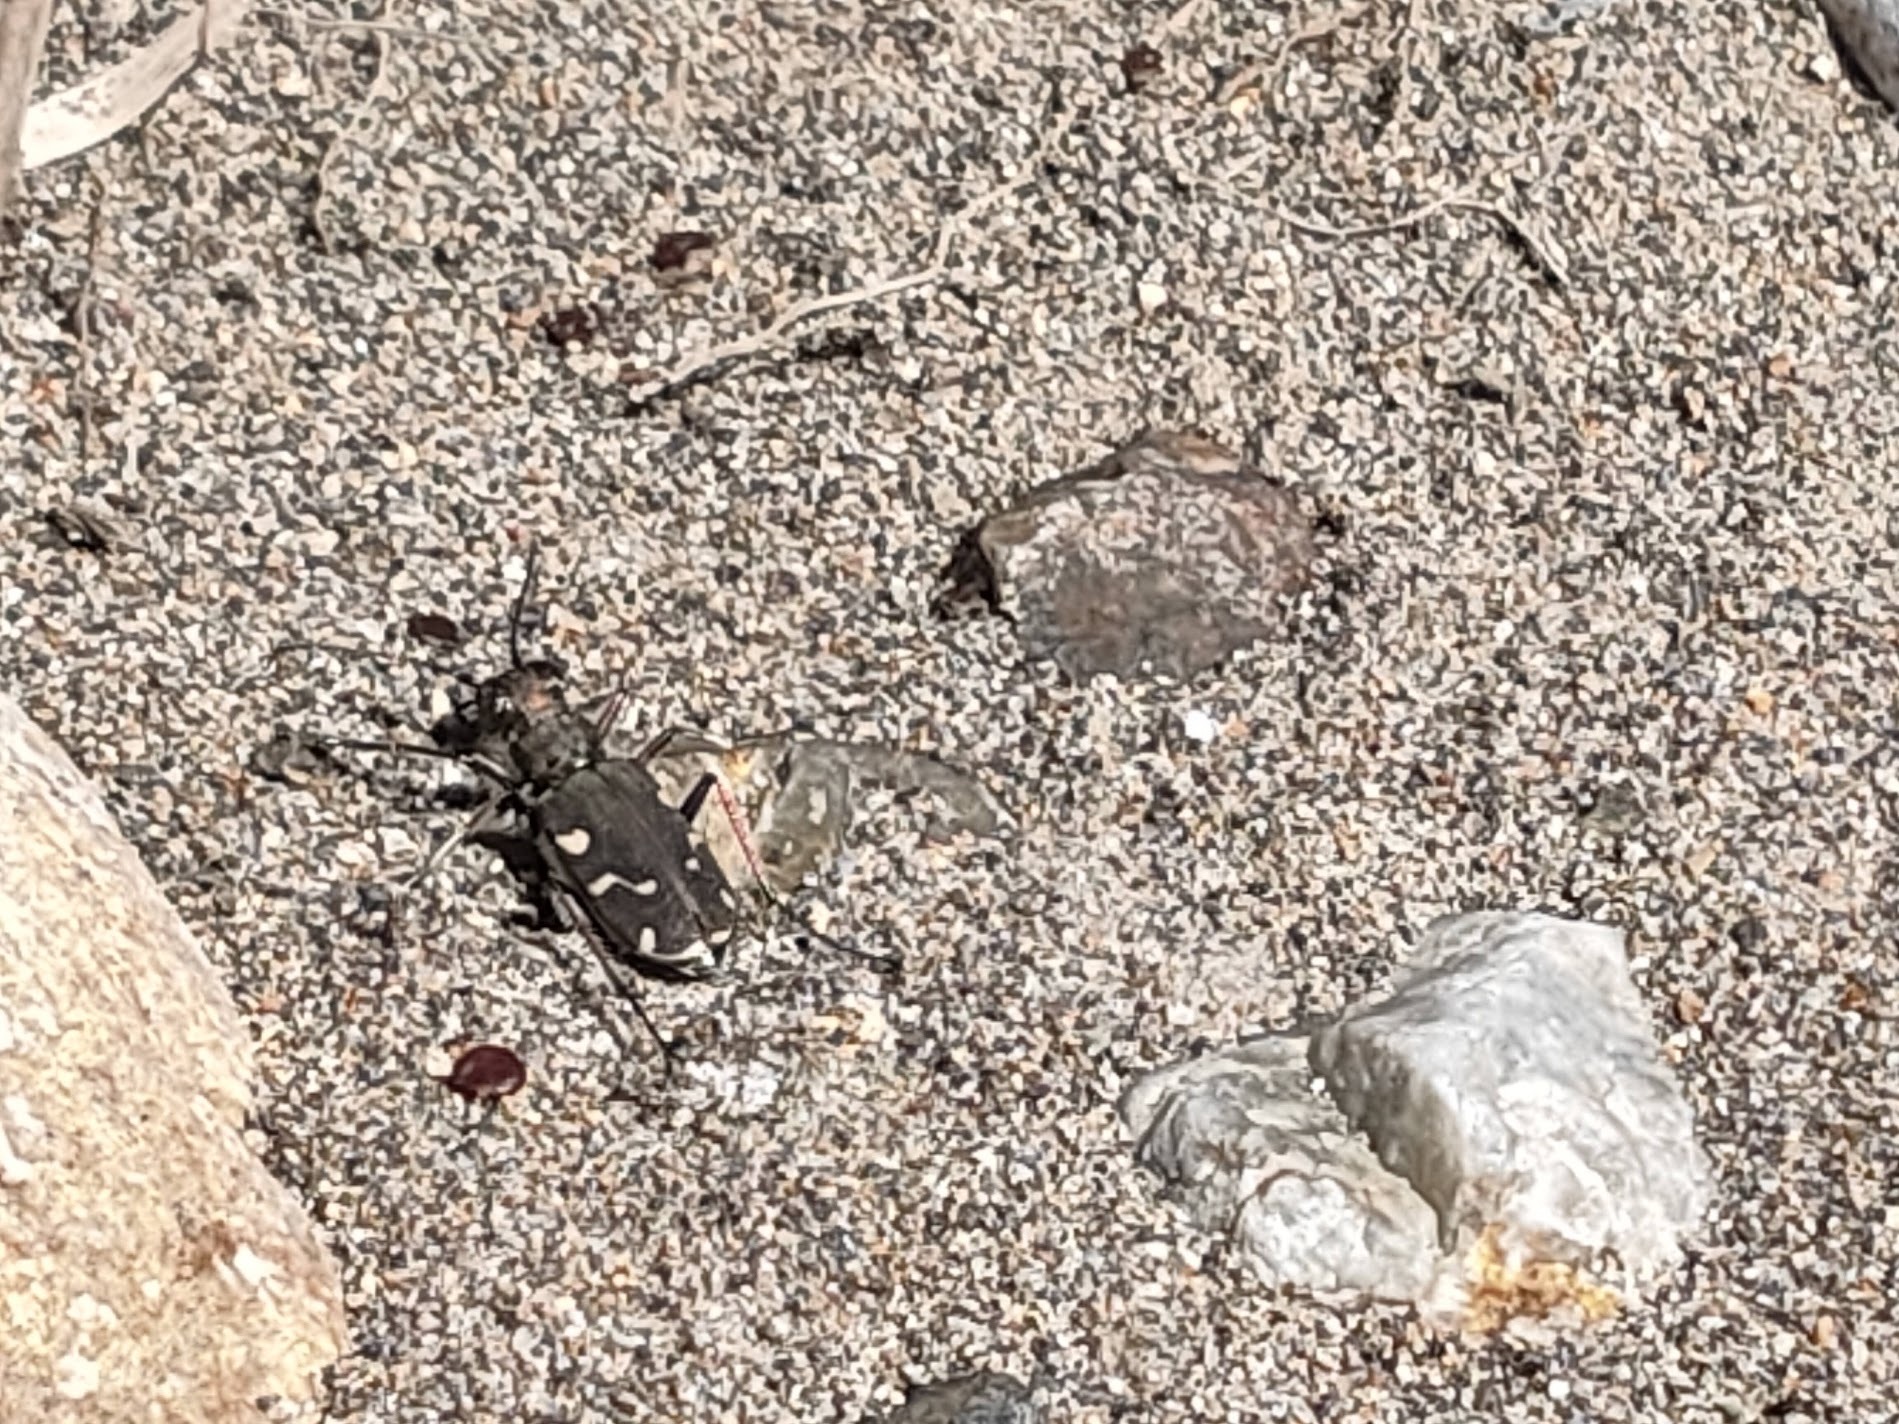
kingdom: Animalia
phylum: Arthropoda
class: Insecta
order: Coleoptera
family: Carabidae
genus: Cicindela
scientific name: Cicindela transbaicalica
